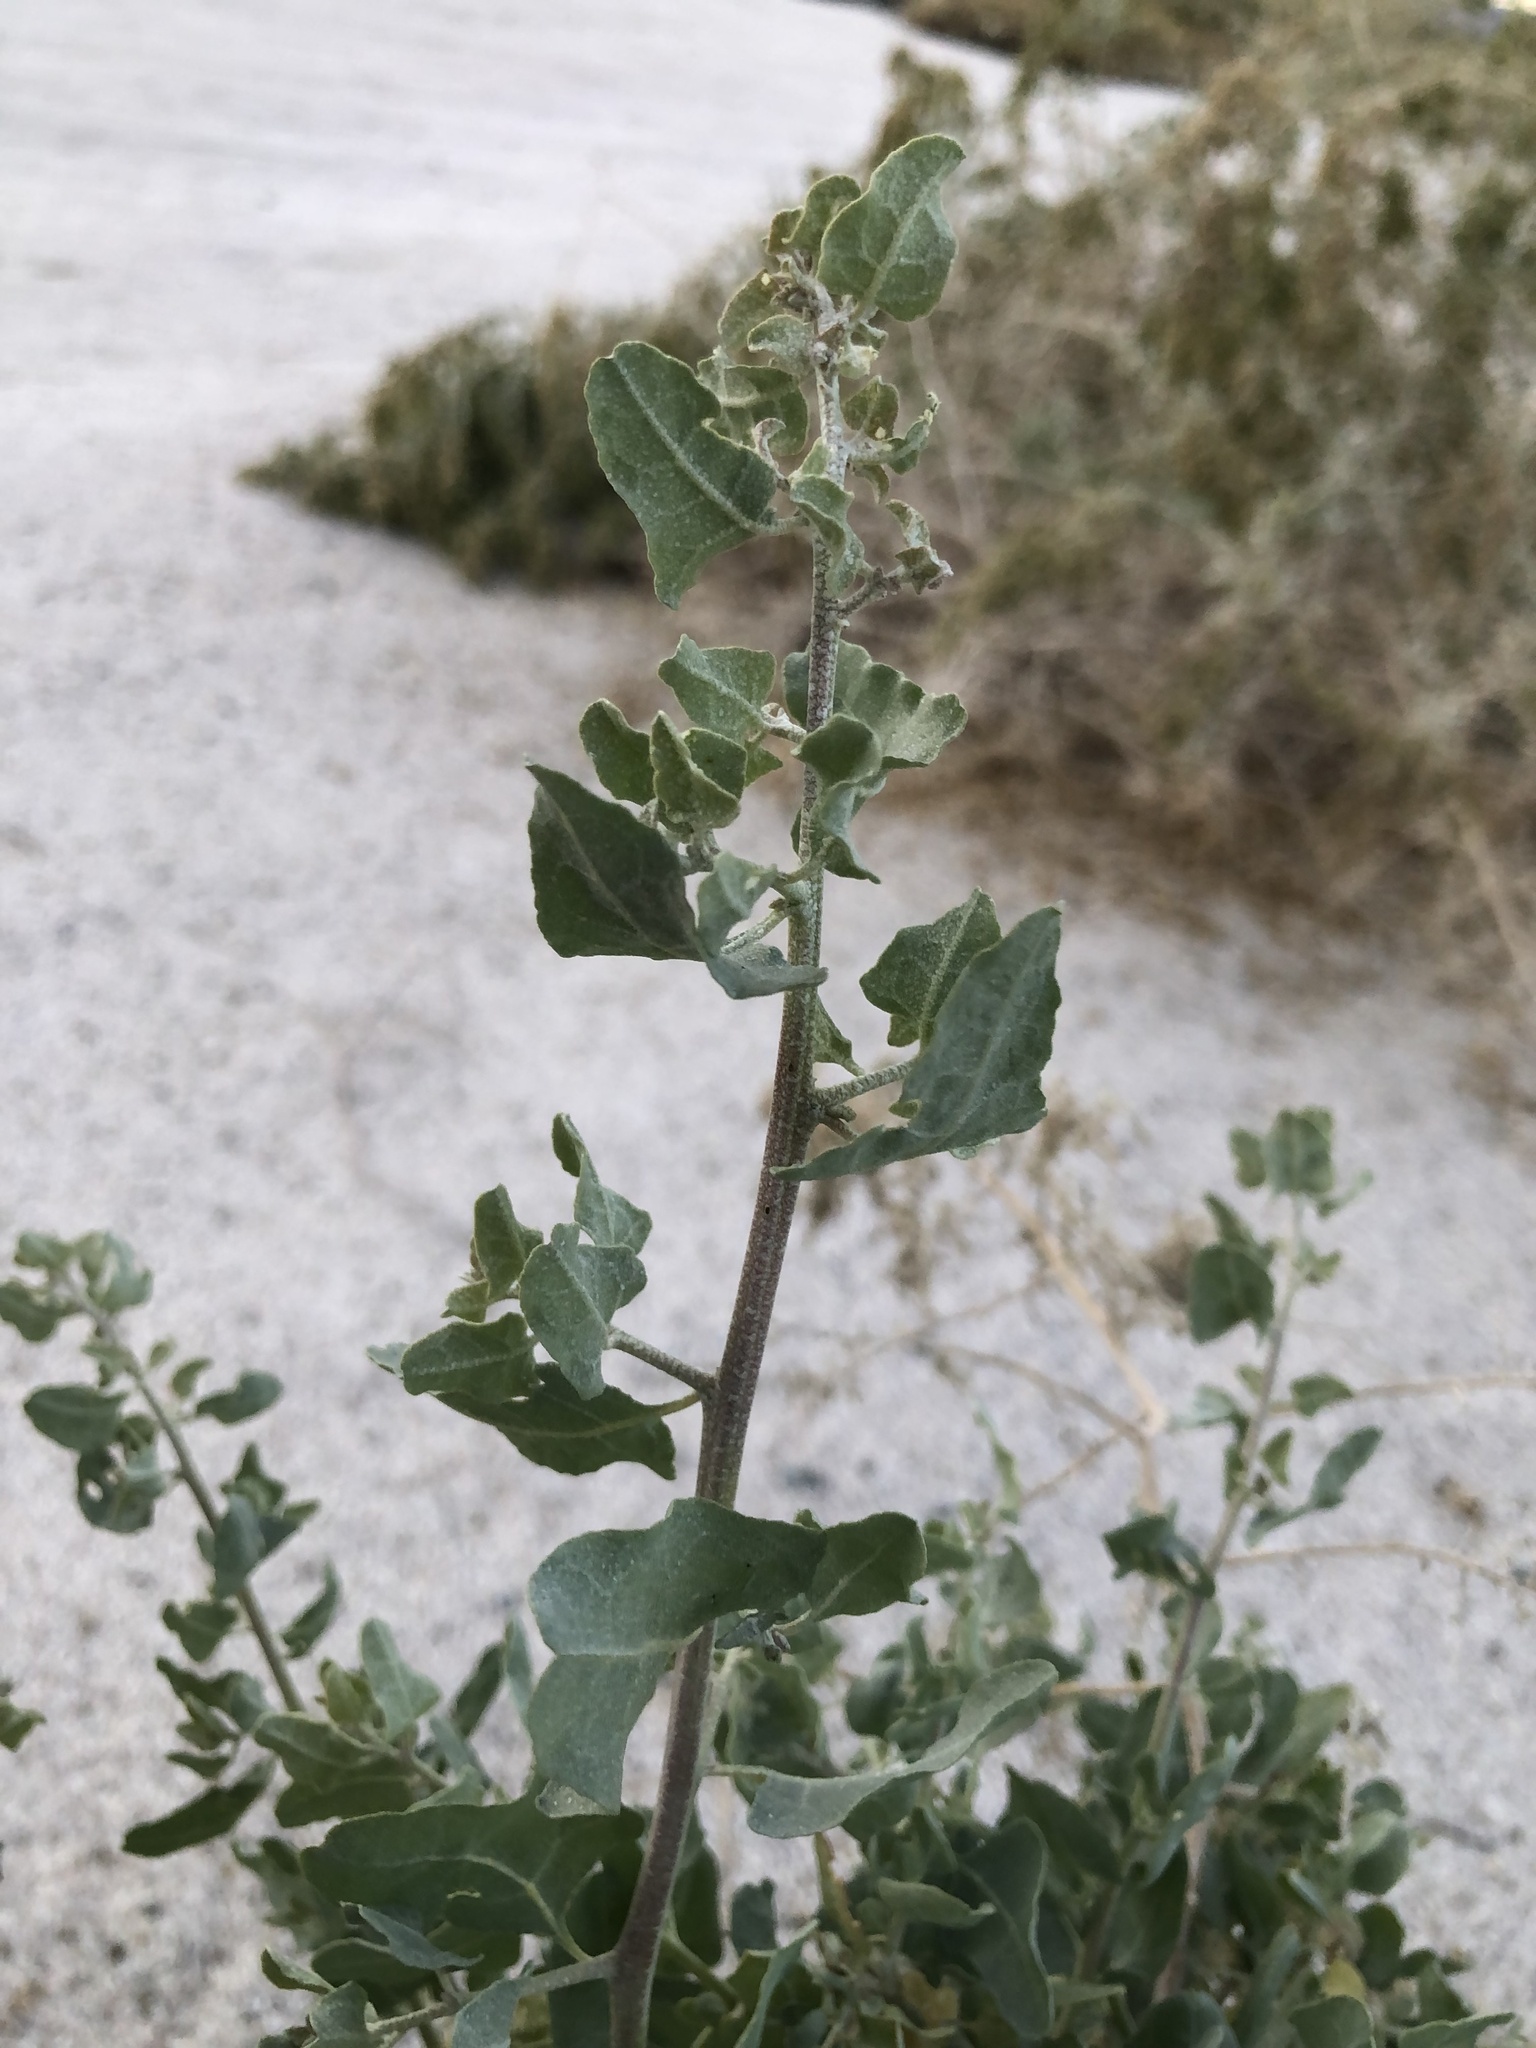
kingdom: Plantae
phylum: Tracheophyta
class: Magnoliopsida
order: Caryophyllales
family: Amaranthaceae
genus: Atriplex
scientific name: Atriplex lentiformis
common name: Big saltbush
